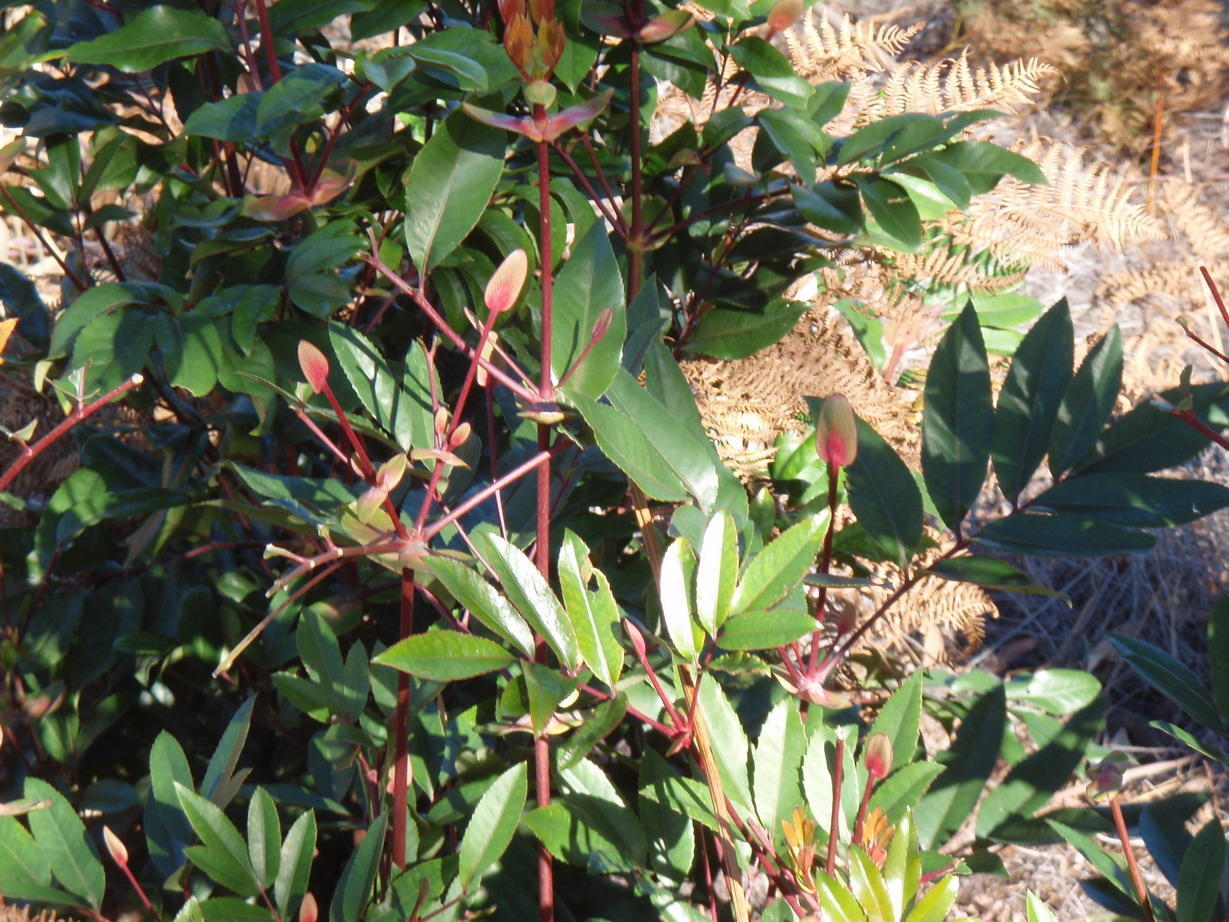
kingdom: Plantae
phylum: Tracheophyta
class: Magnoliopsida
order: Oxalidales
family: Cunoniaceae
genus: Cunonia
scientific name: Cunonia capensis
